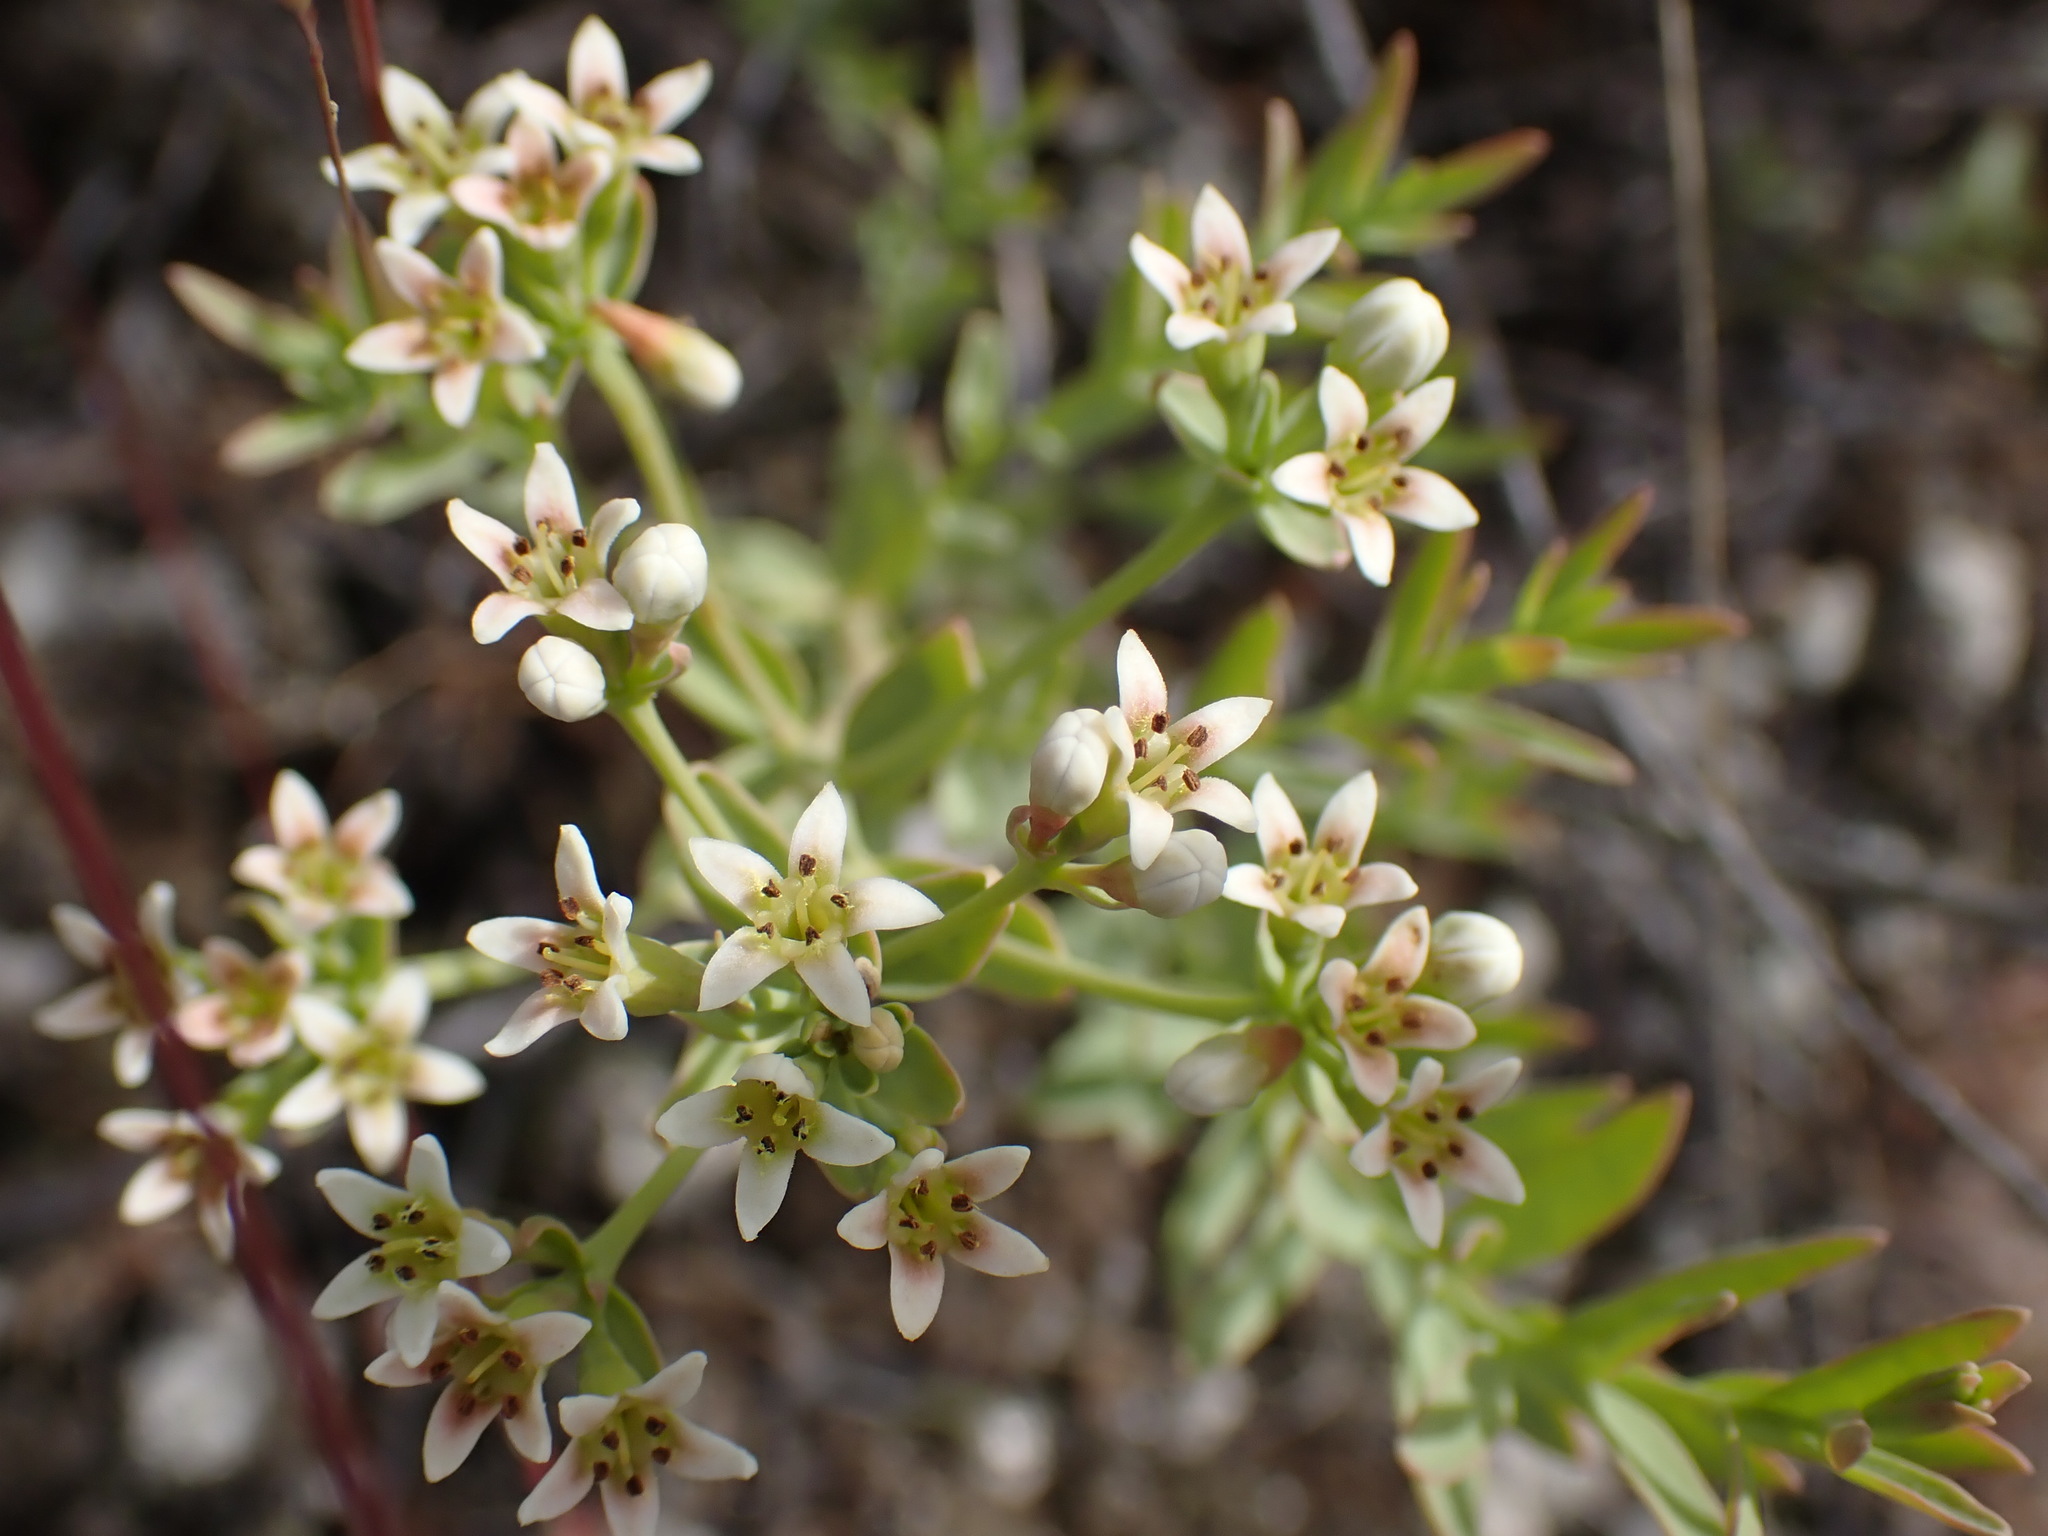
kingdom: Plantae
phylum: Tracheophyta
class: Magnoliopsida
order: Santalales
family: Comandraceae
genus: Comandra
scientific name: Comandra umbellata
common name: Bastard toadflax
